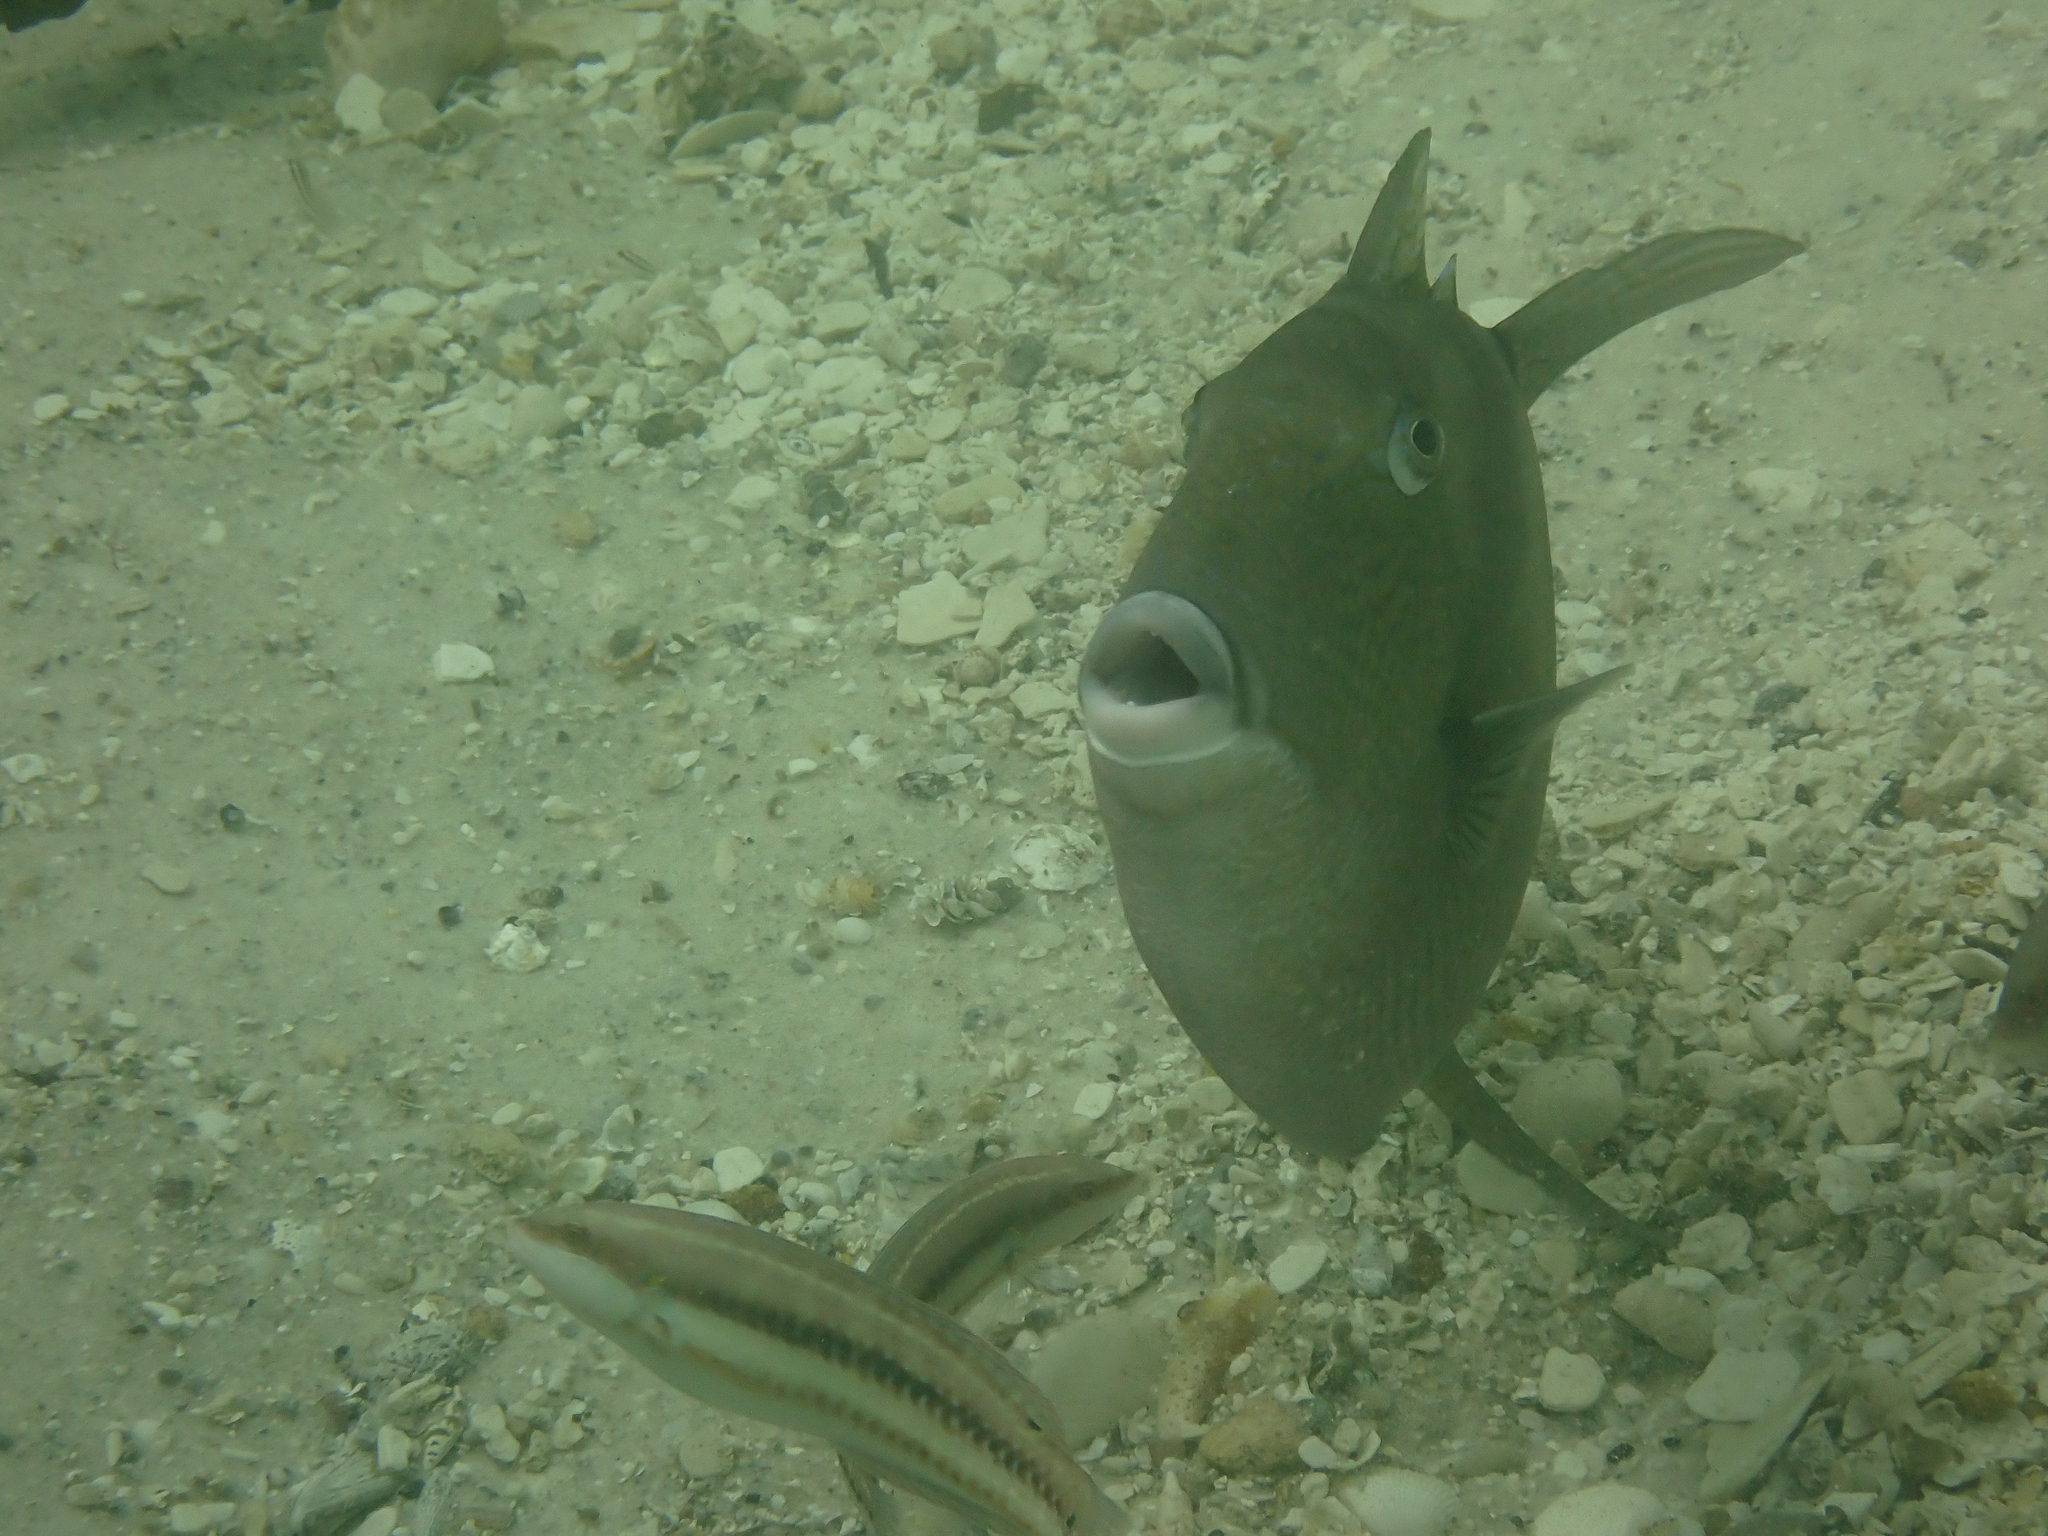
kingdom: Animalia
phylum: Chordata
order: Tetraodontiformes
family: Balistidae
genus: Balistes
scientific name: Balistes capriscus
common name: Grey triggerfish
